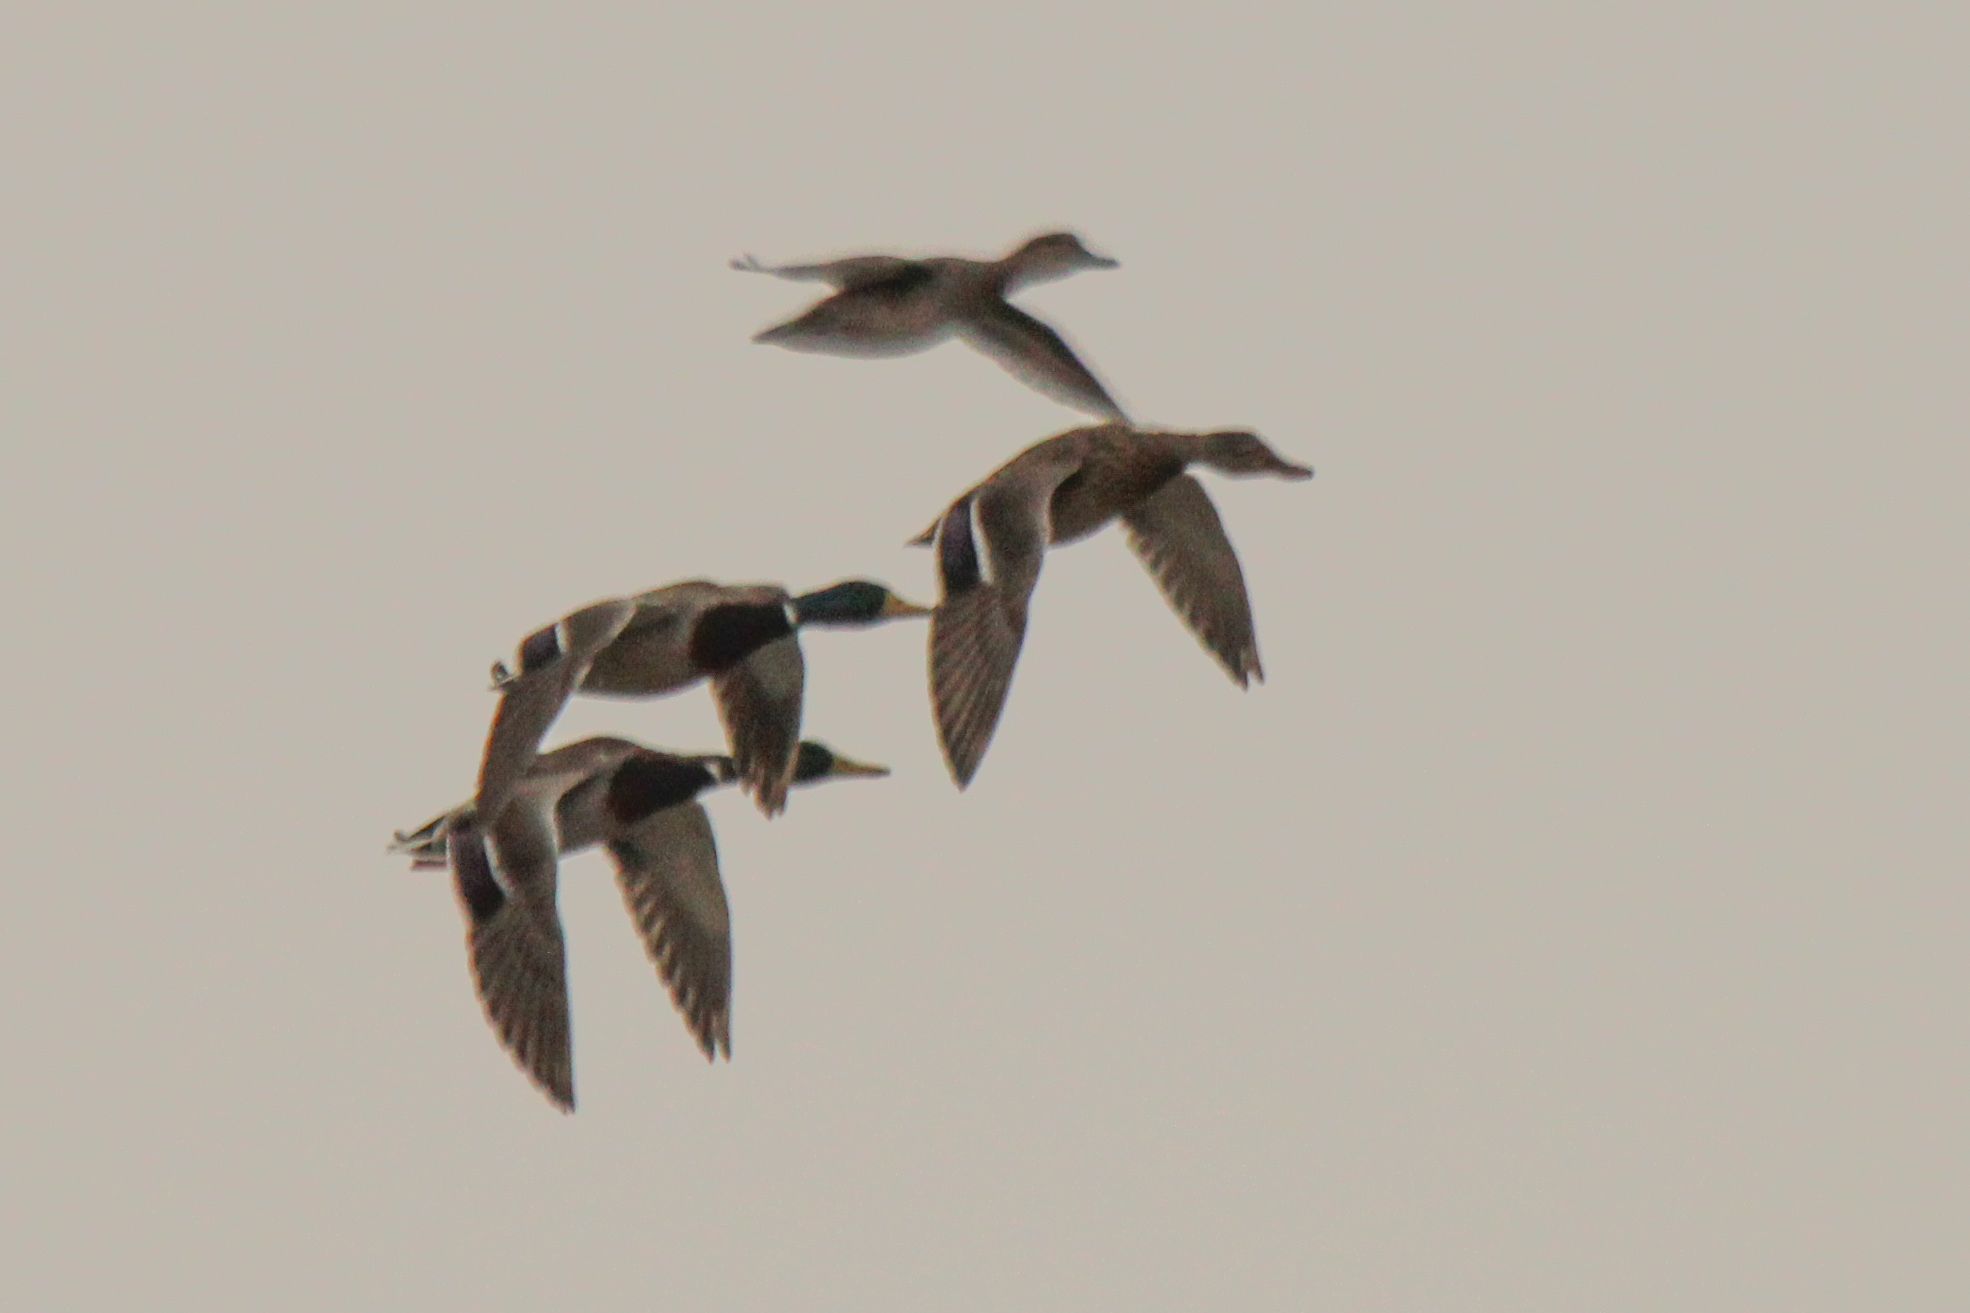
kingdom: Animalia
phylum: Chordata
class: Aves
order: Anseriformes
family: Anatidae
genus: Anas
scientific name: Anas platyrhynchos
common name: Mallard
